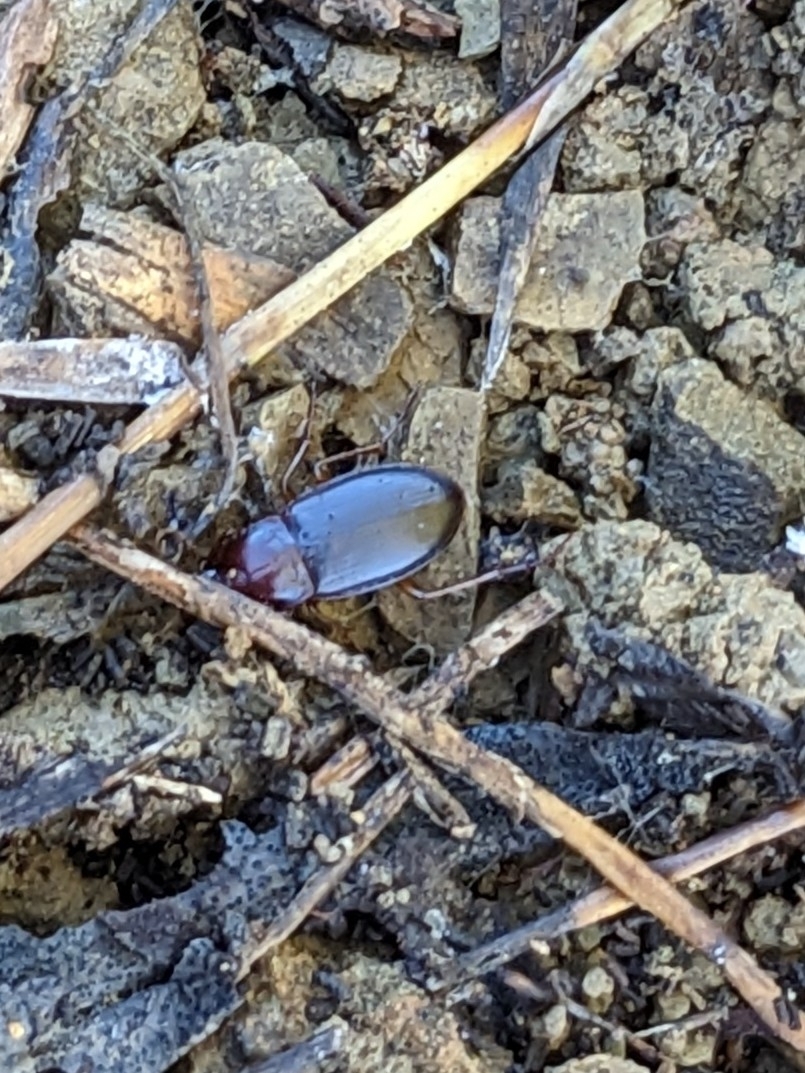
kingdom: Animalia
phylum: Arthropoda
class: Insecta
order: Coleoptera
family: Carabidae
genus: Calathus
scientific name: Calathus ruficollis
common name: Red-collared harp ground beetle
